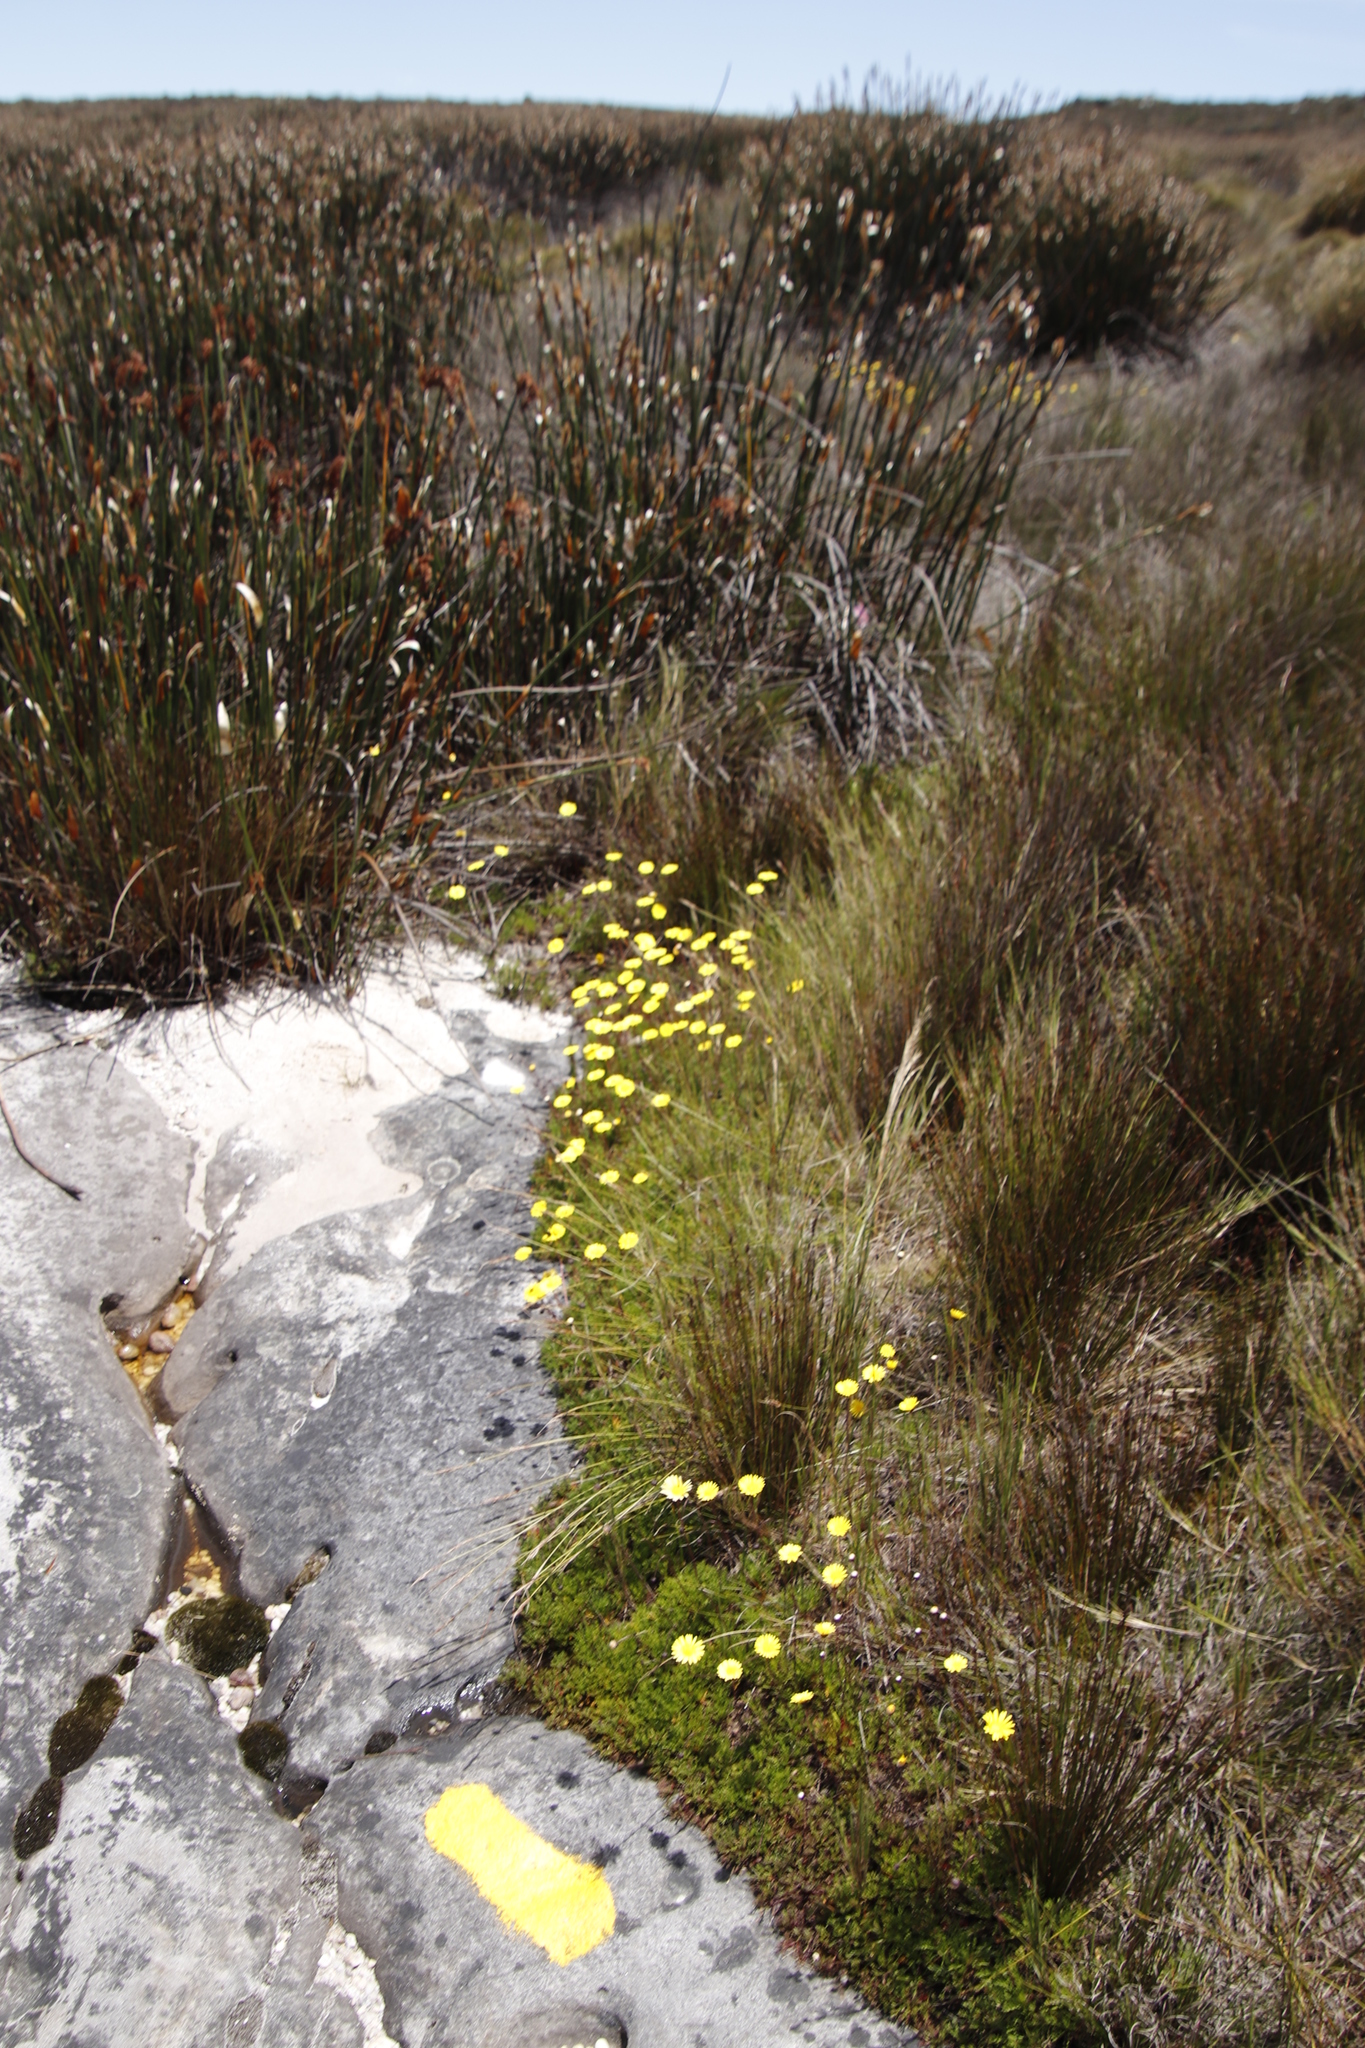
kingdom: Plantae
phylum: Tracheophyta
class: Magnoliopsida
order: Asterales
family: Asteraceae
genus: Ursinia
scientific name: Ursinia nudicaulis
